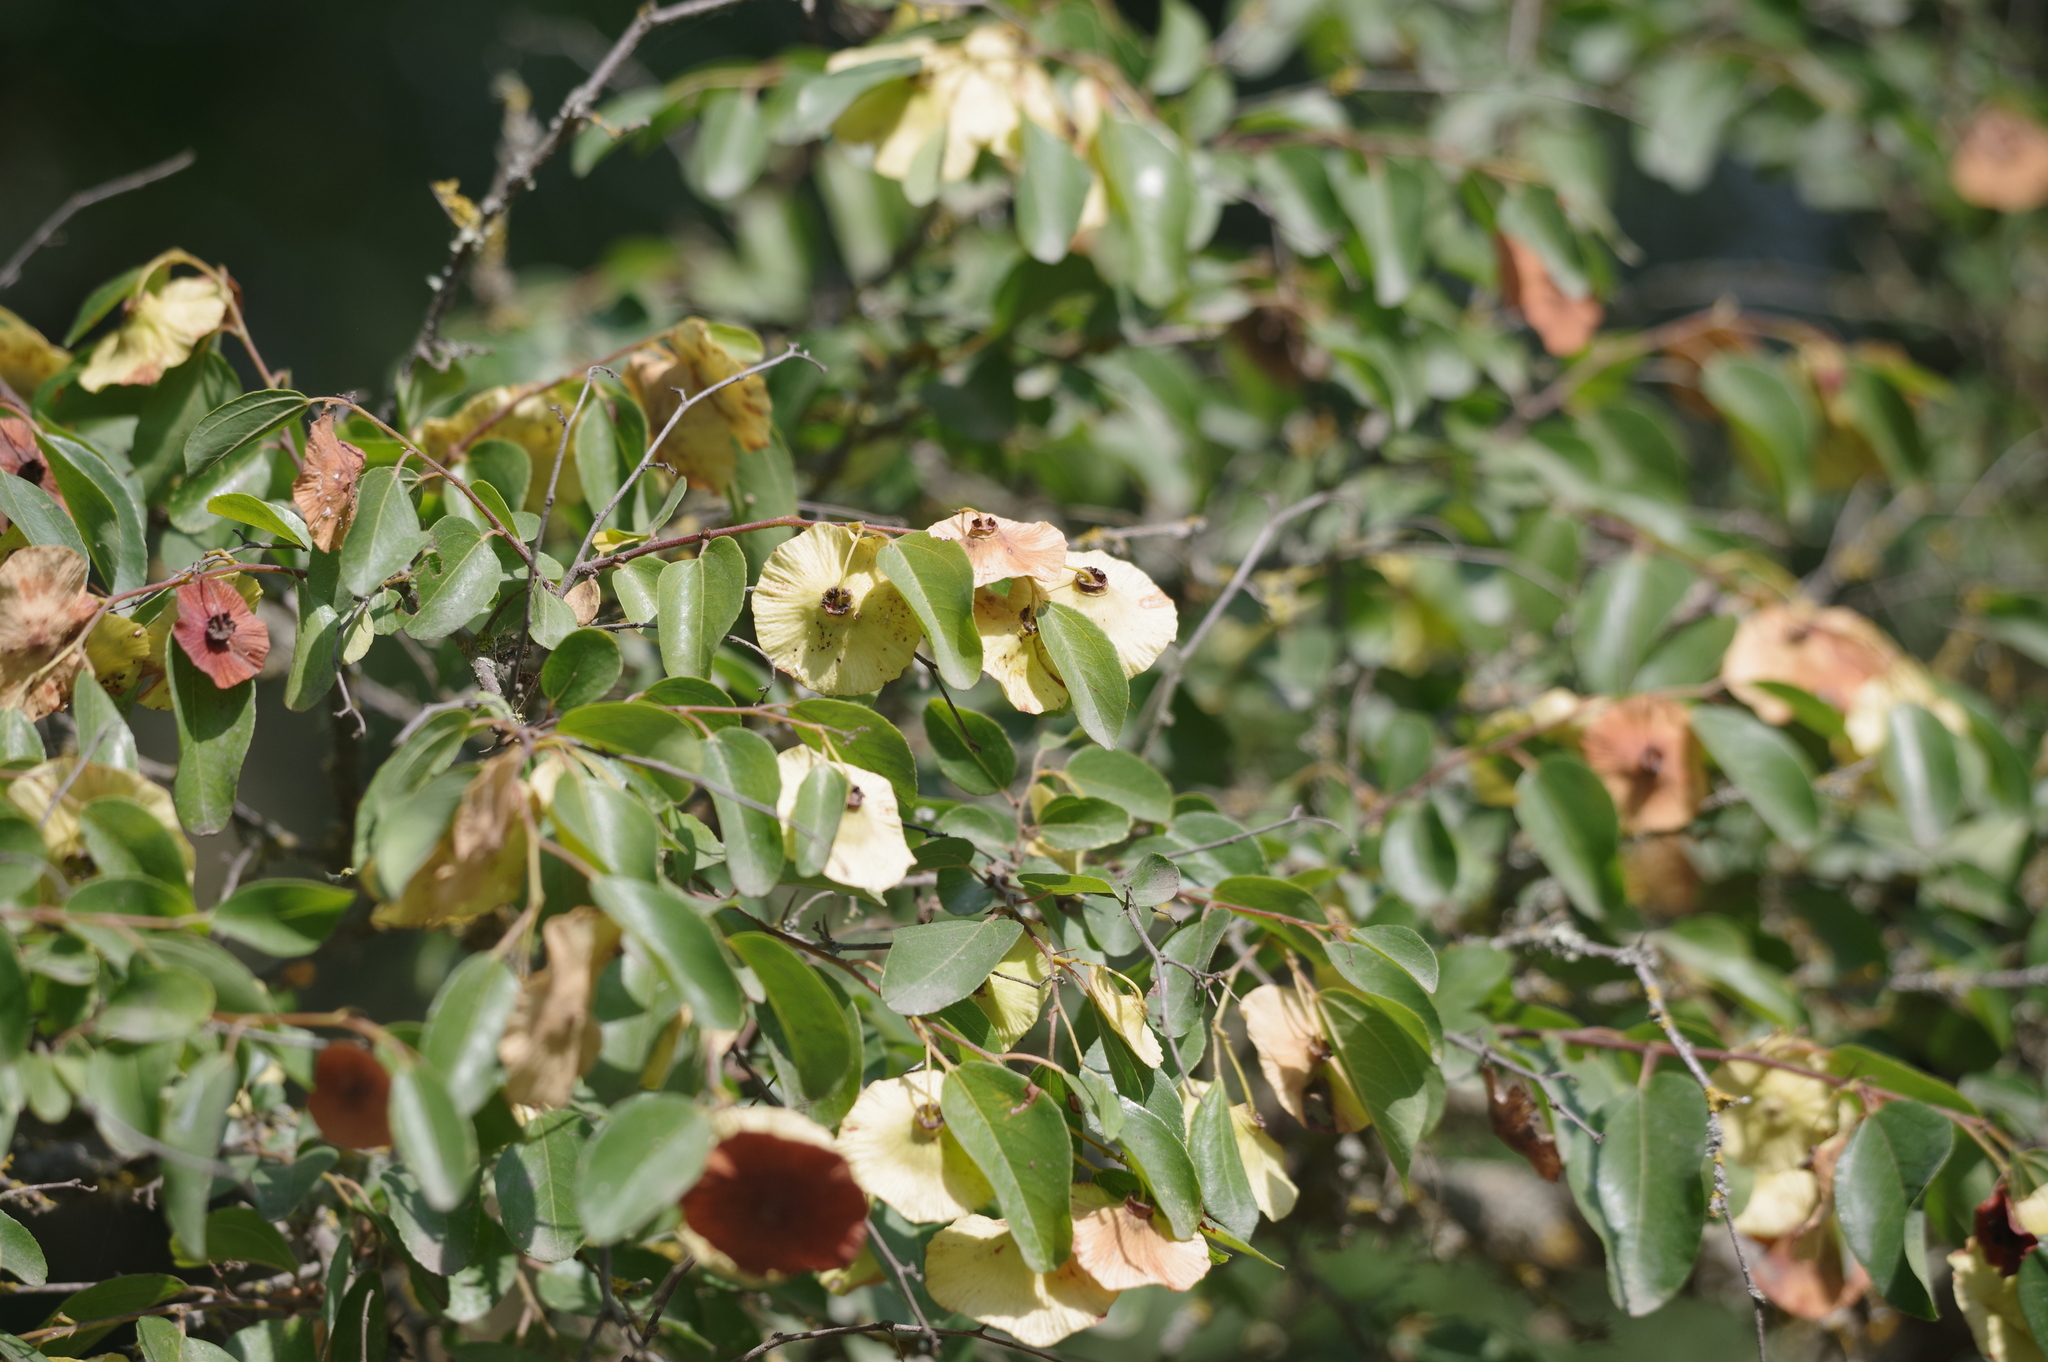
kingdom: Plantae
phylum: Tracheophyta
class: Magnoliopsida
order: Rosales
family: Rhamnaceae
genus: Paliurus
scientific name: Paliurus spina-christi
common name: Jeruselem thorn
